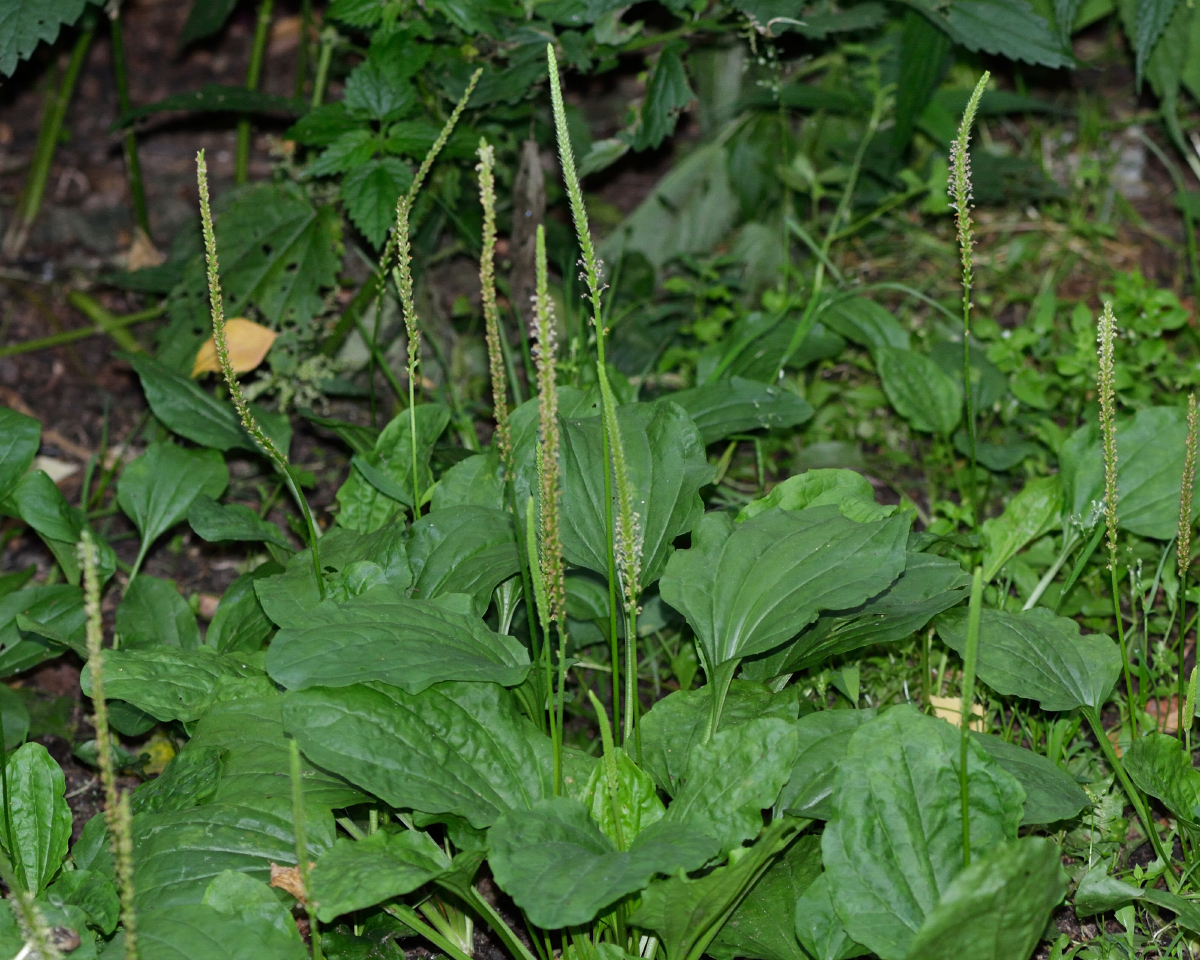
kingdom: Plantae
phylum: Tracheophyta
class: Magnoliopsida
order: Lamiales
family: Plantaginaceae
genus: Plantago
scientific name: Plantago major
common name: Common plantain
